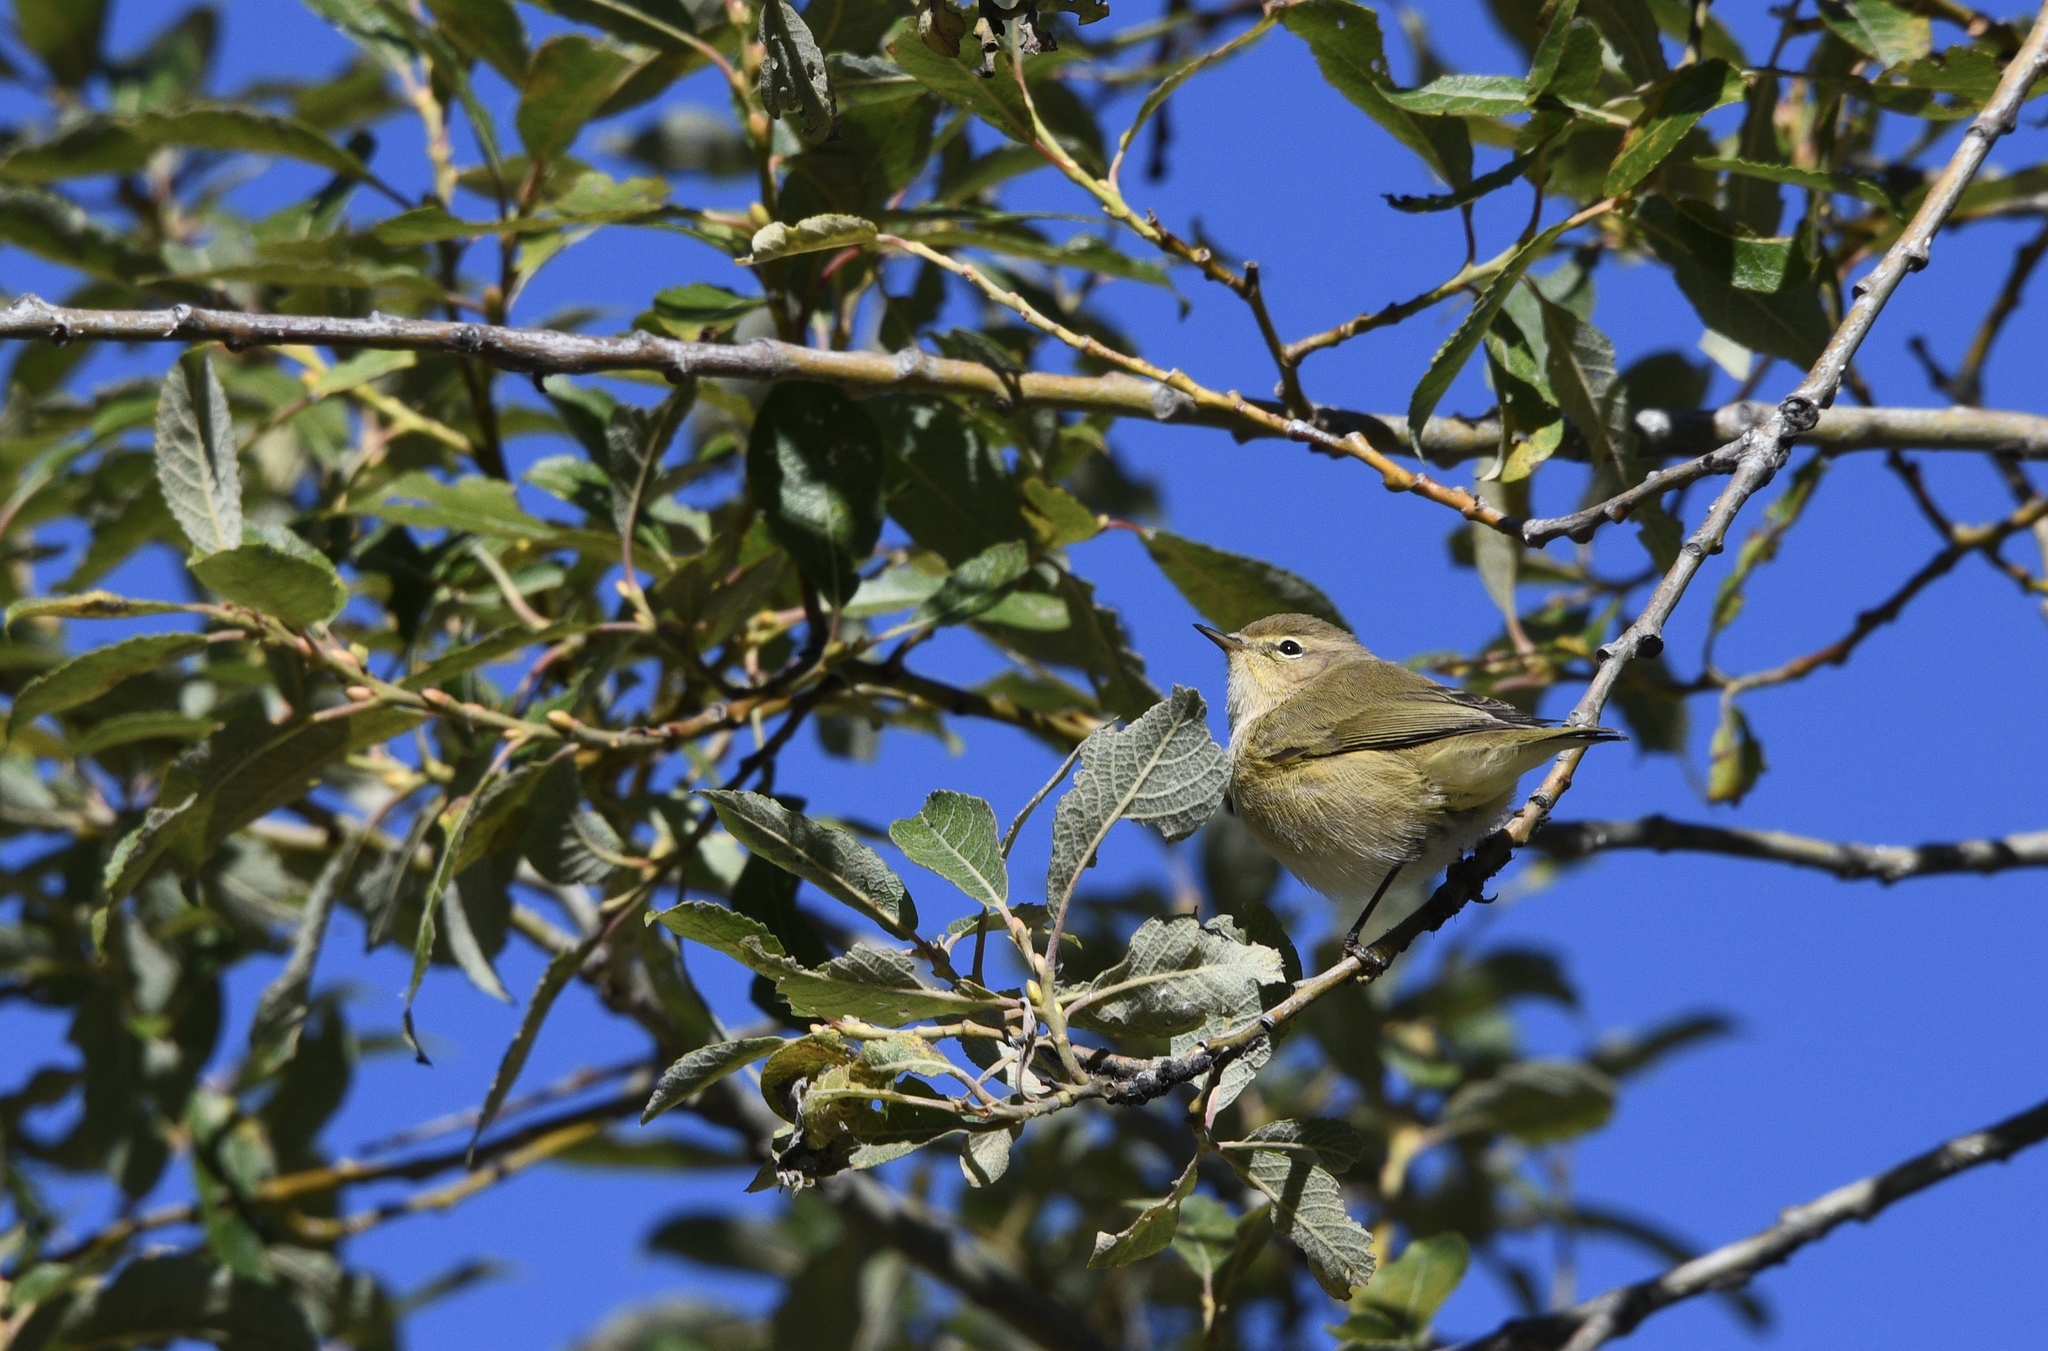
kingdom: Animalia
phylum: Chordata
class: Aves
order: Passeriformes
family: Phylloscopidae
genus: Phylloscopus
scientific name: Phylloscopus collybita
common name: Common chiffchaff
